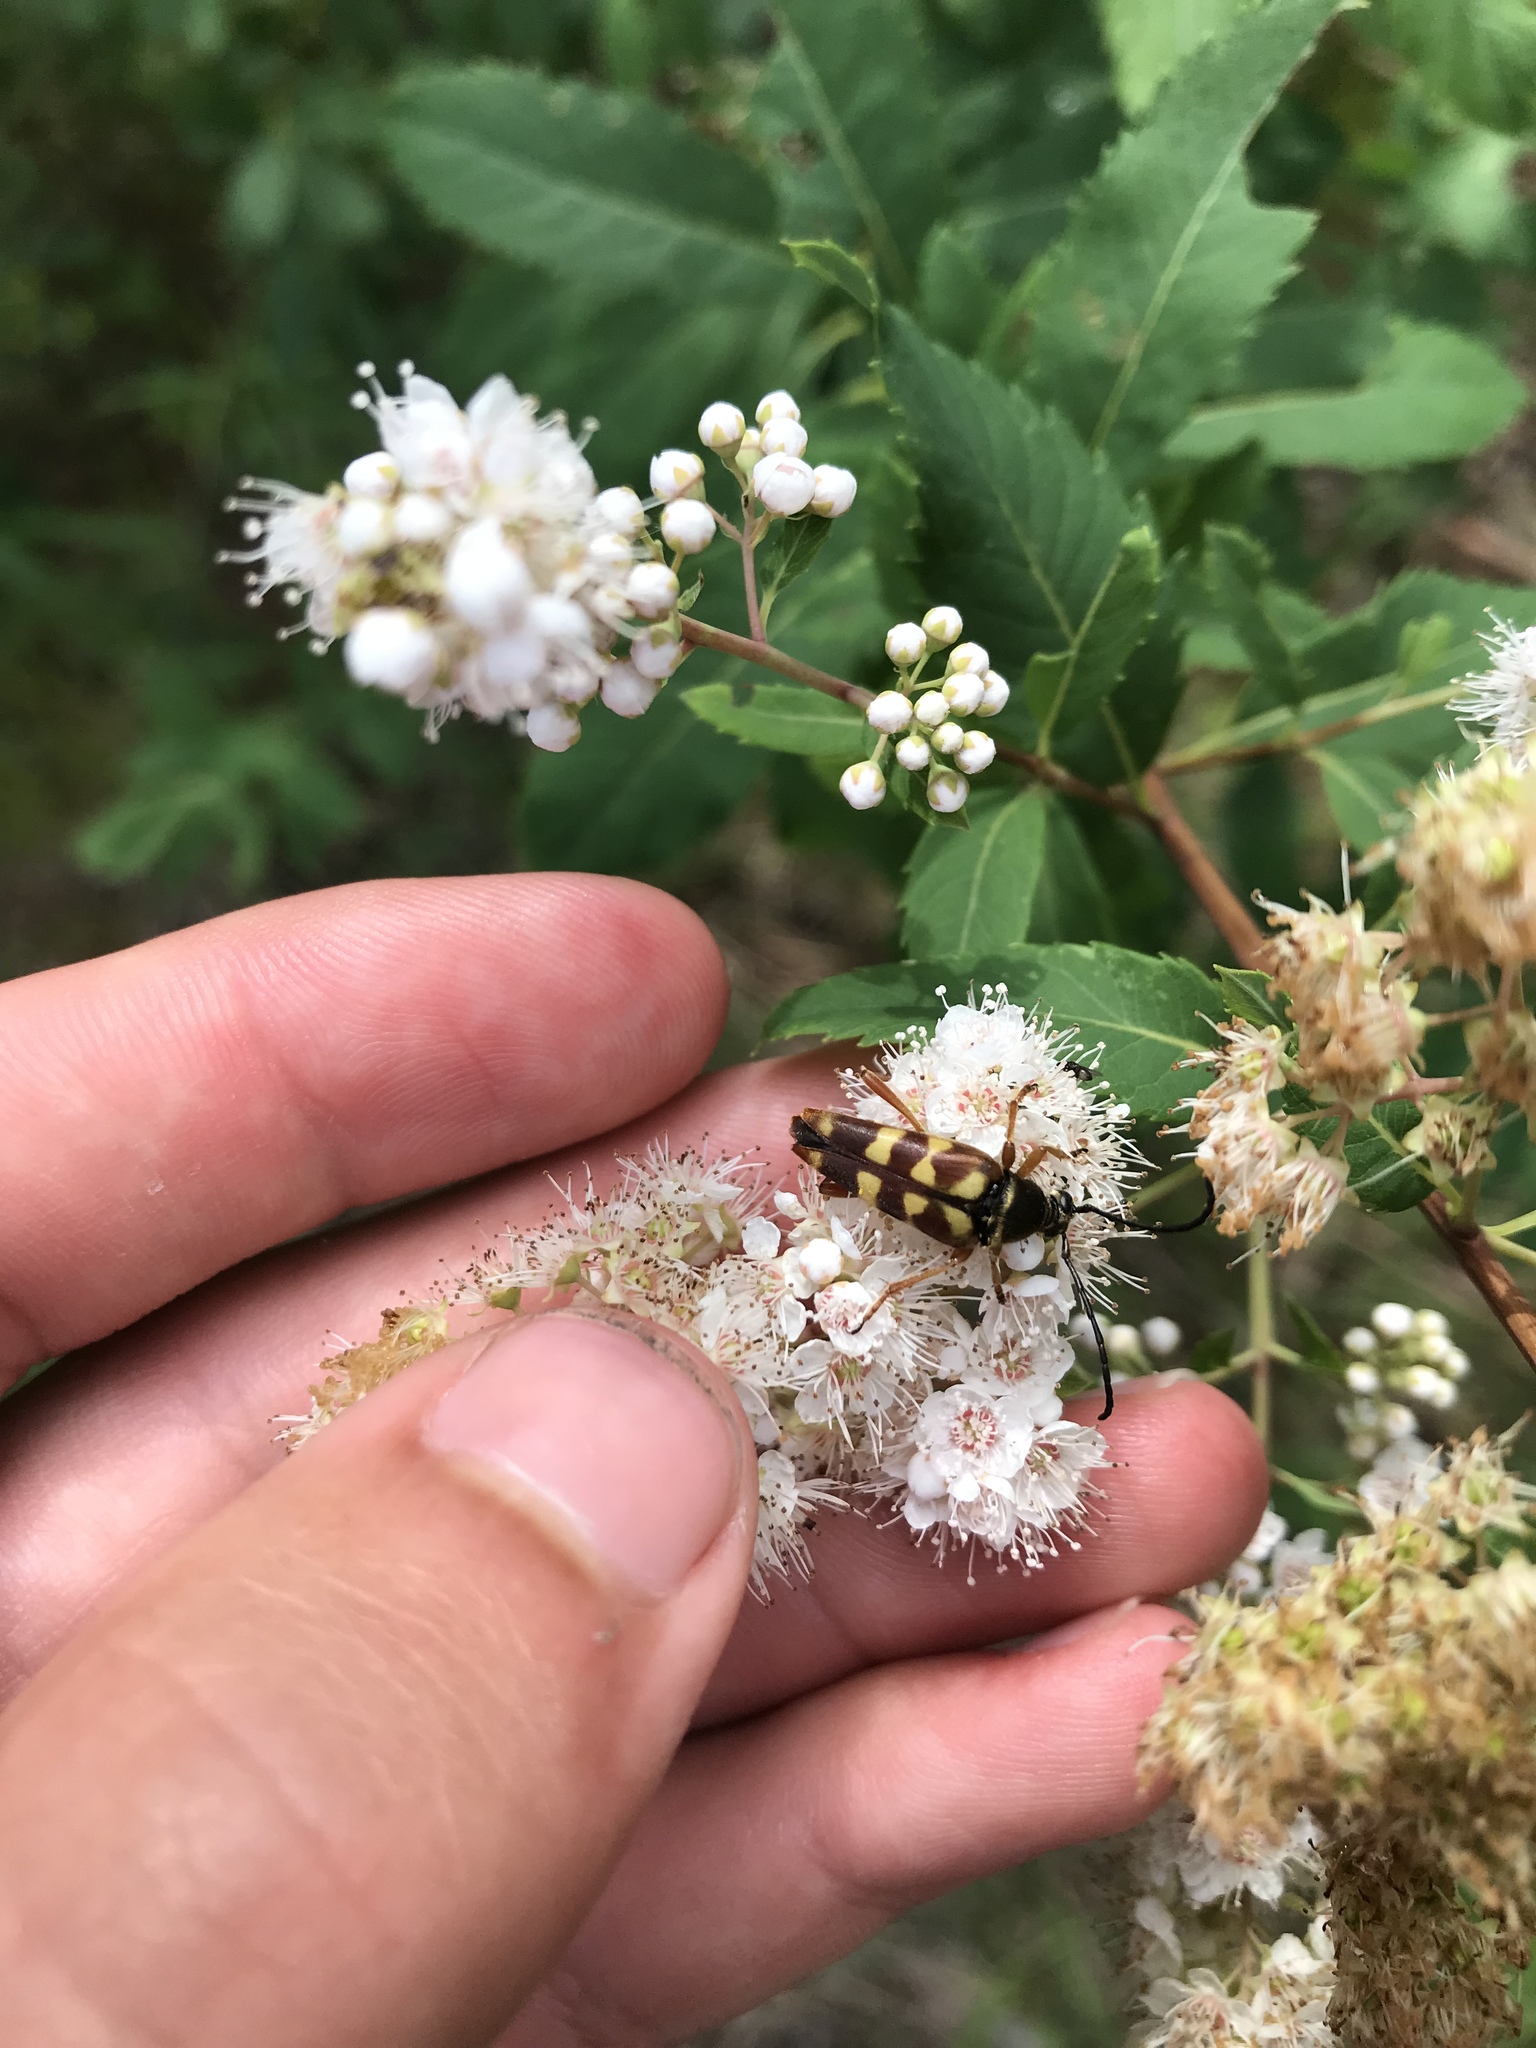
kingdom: Animalia
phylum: Arthropoda
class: Insecta
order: Coleoptera
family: Cerambycidae
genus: Typocerus
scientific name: Typocerus velutinus
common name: Banded longhorn beetle
